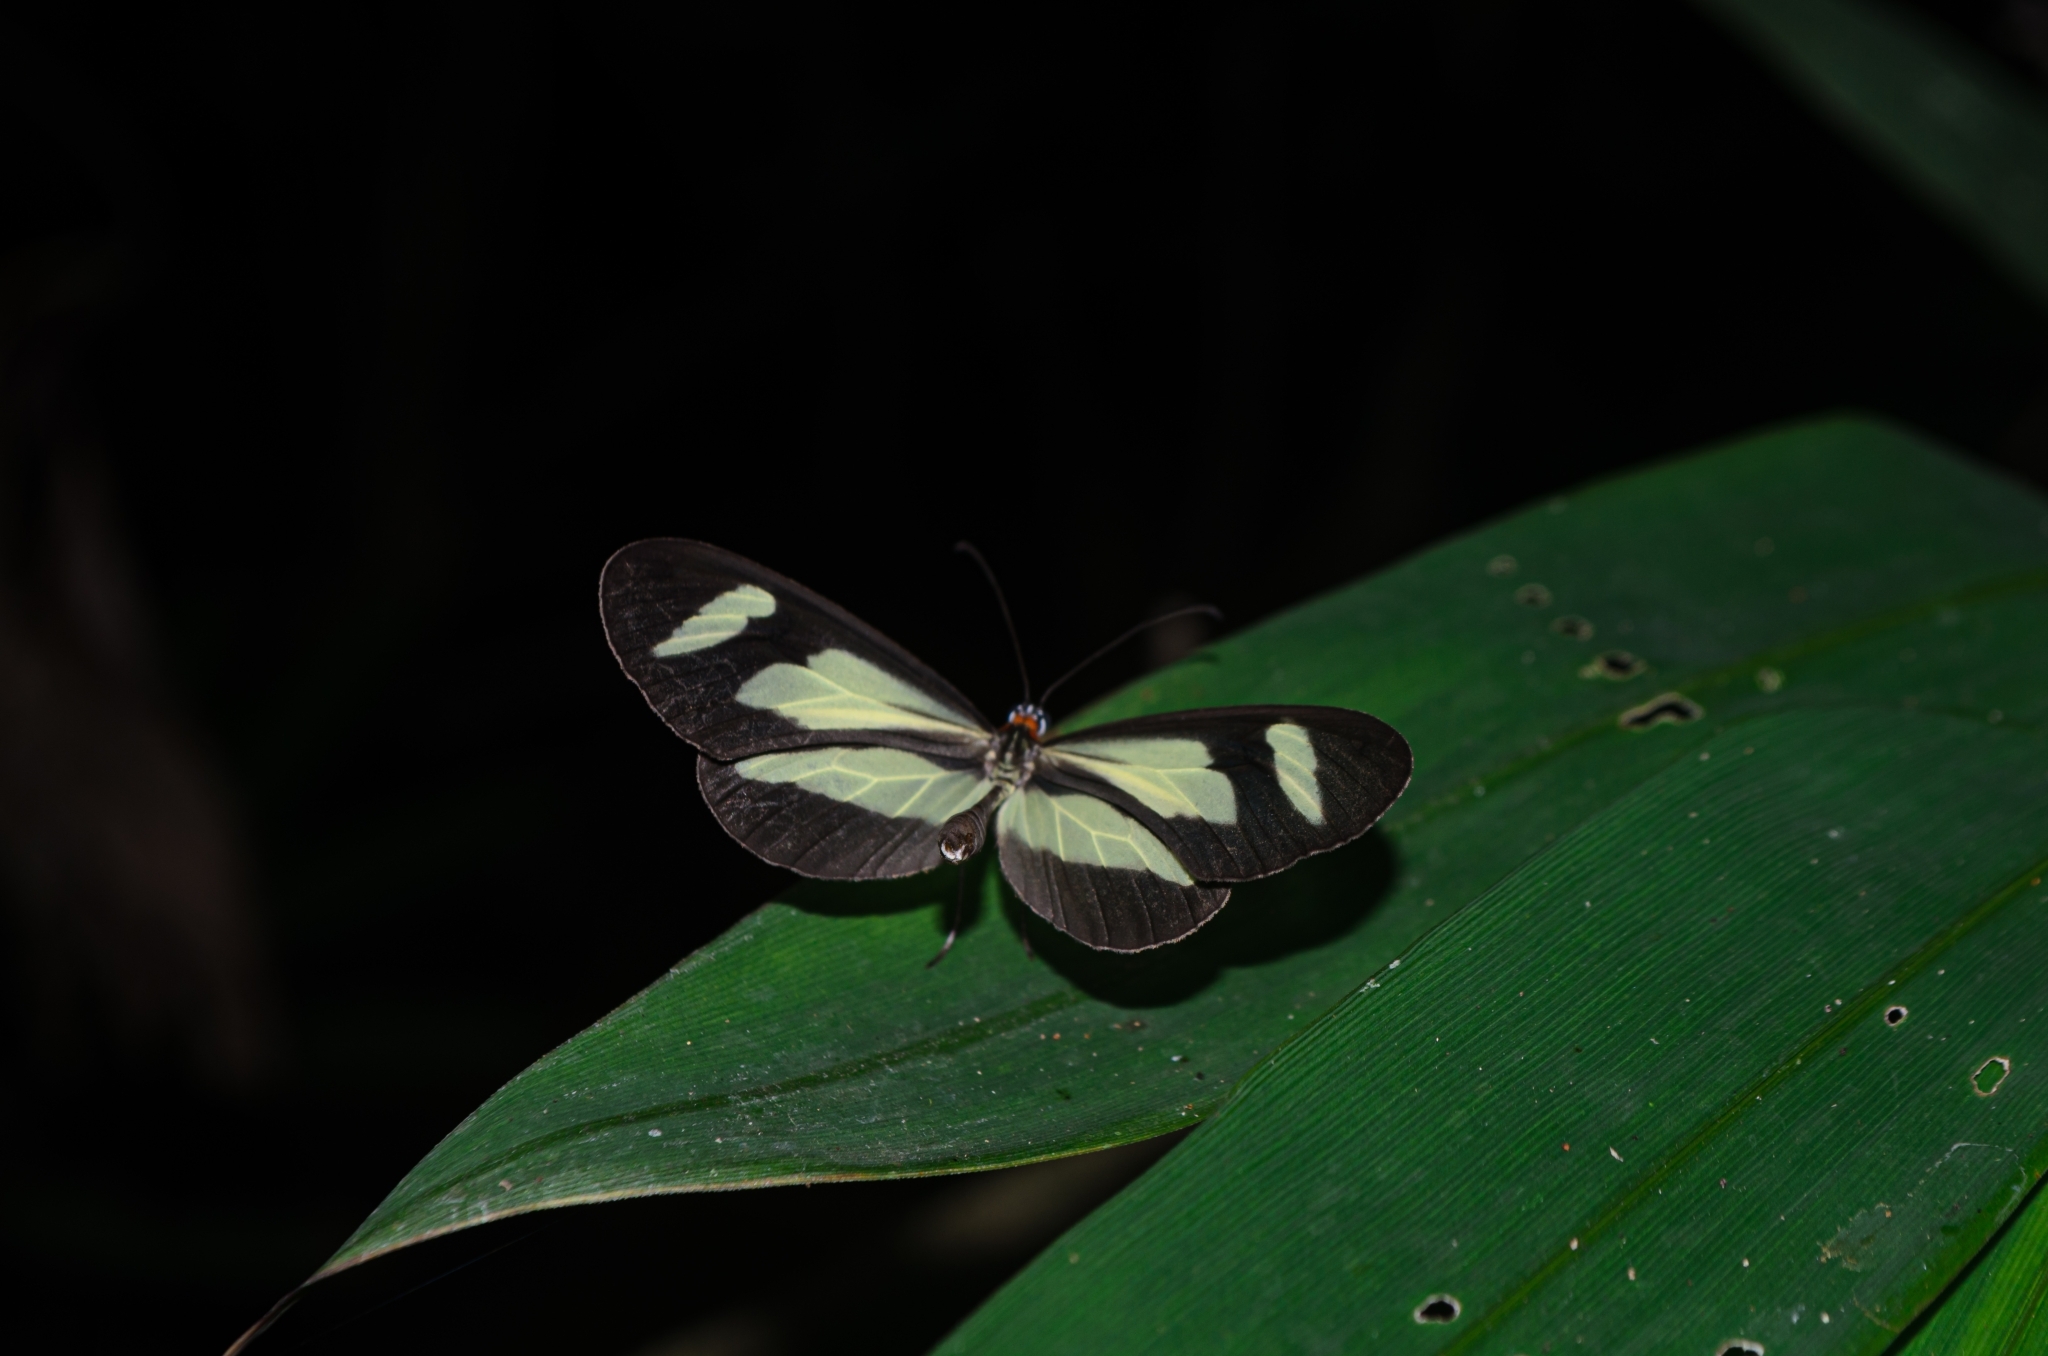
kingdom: Animalia
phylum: Arthropoda
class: Insecta
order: Lepidoptera
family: Nymphalidae
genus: Aeria
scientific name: Aeria olena
